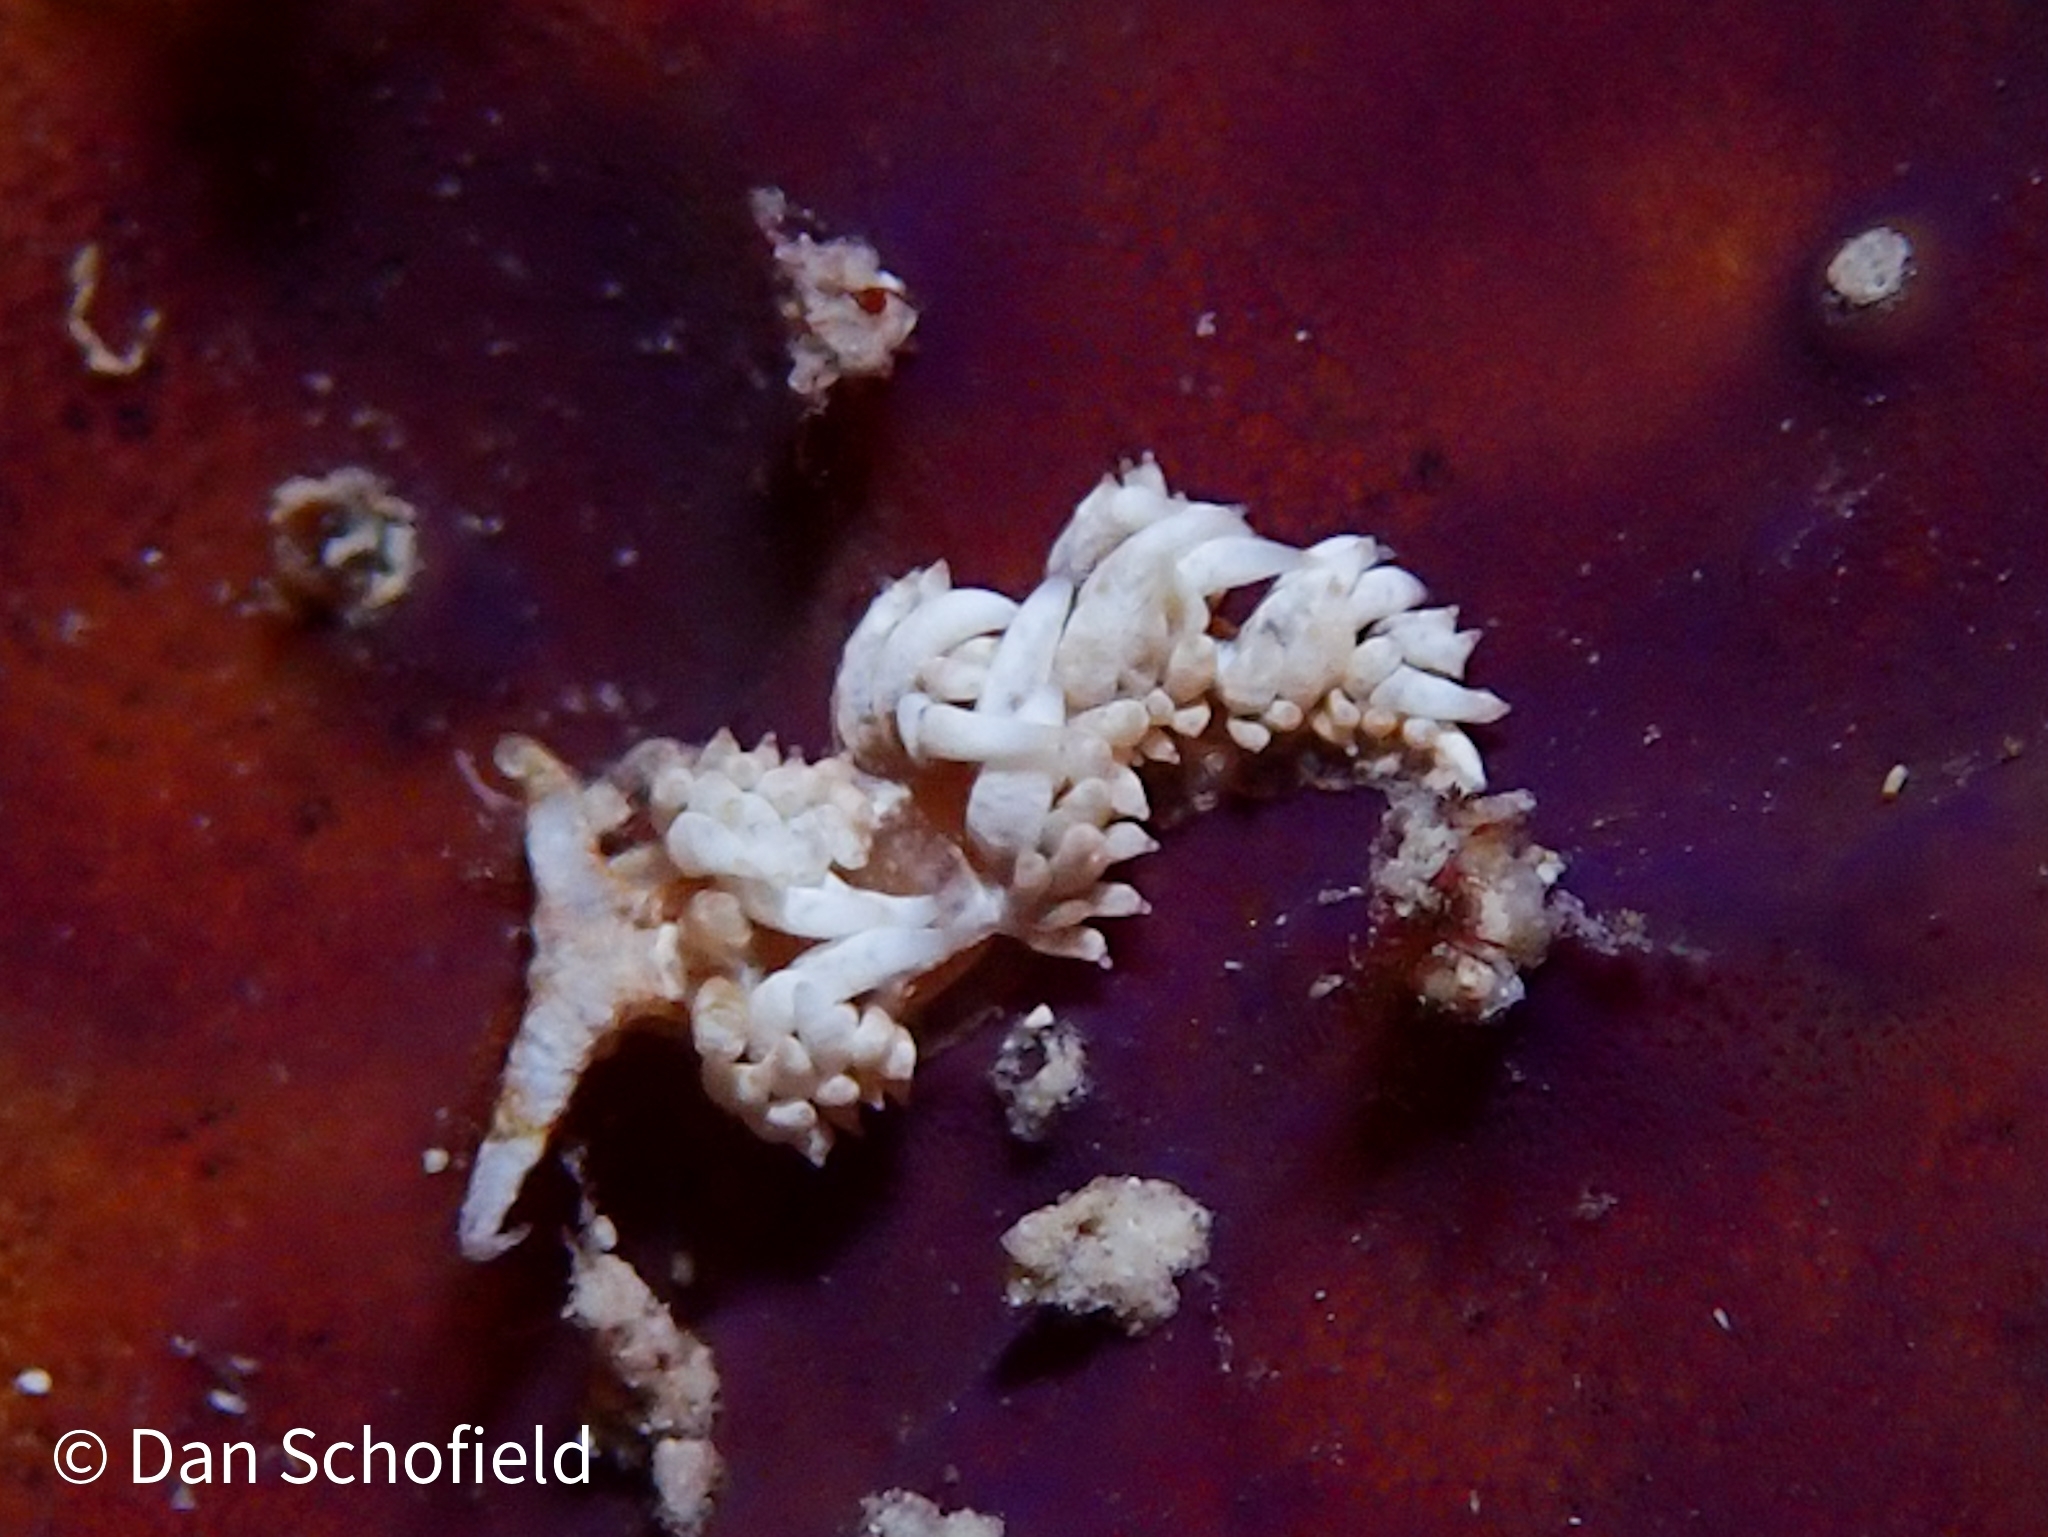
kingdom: Animalia
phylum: Mollusca
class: Gastropoda
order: Nudibranchia
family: Facelinidae
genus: Palisa
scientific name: Palisa papillata
